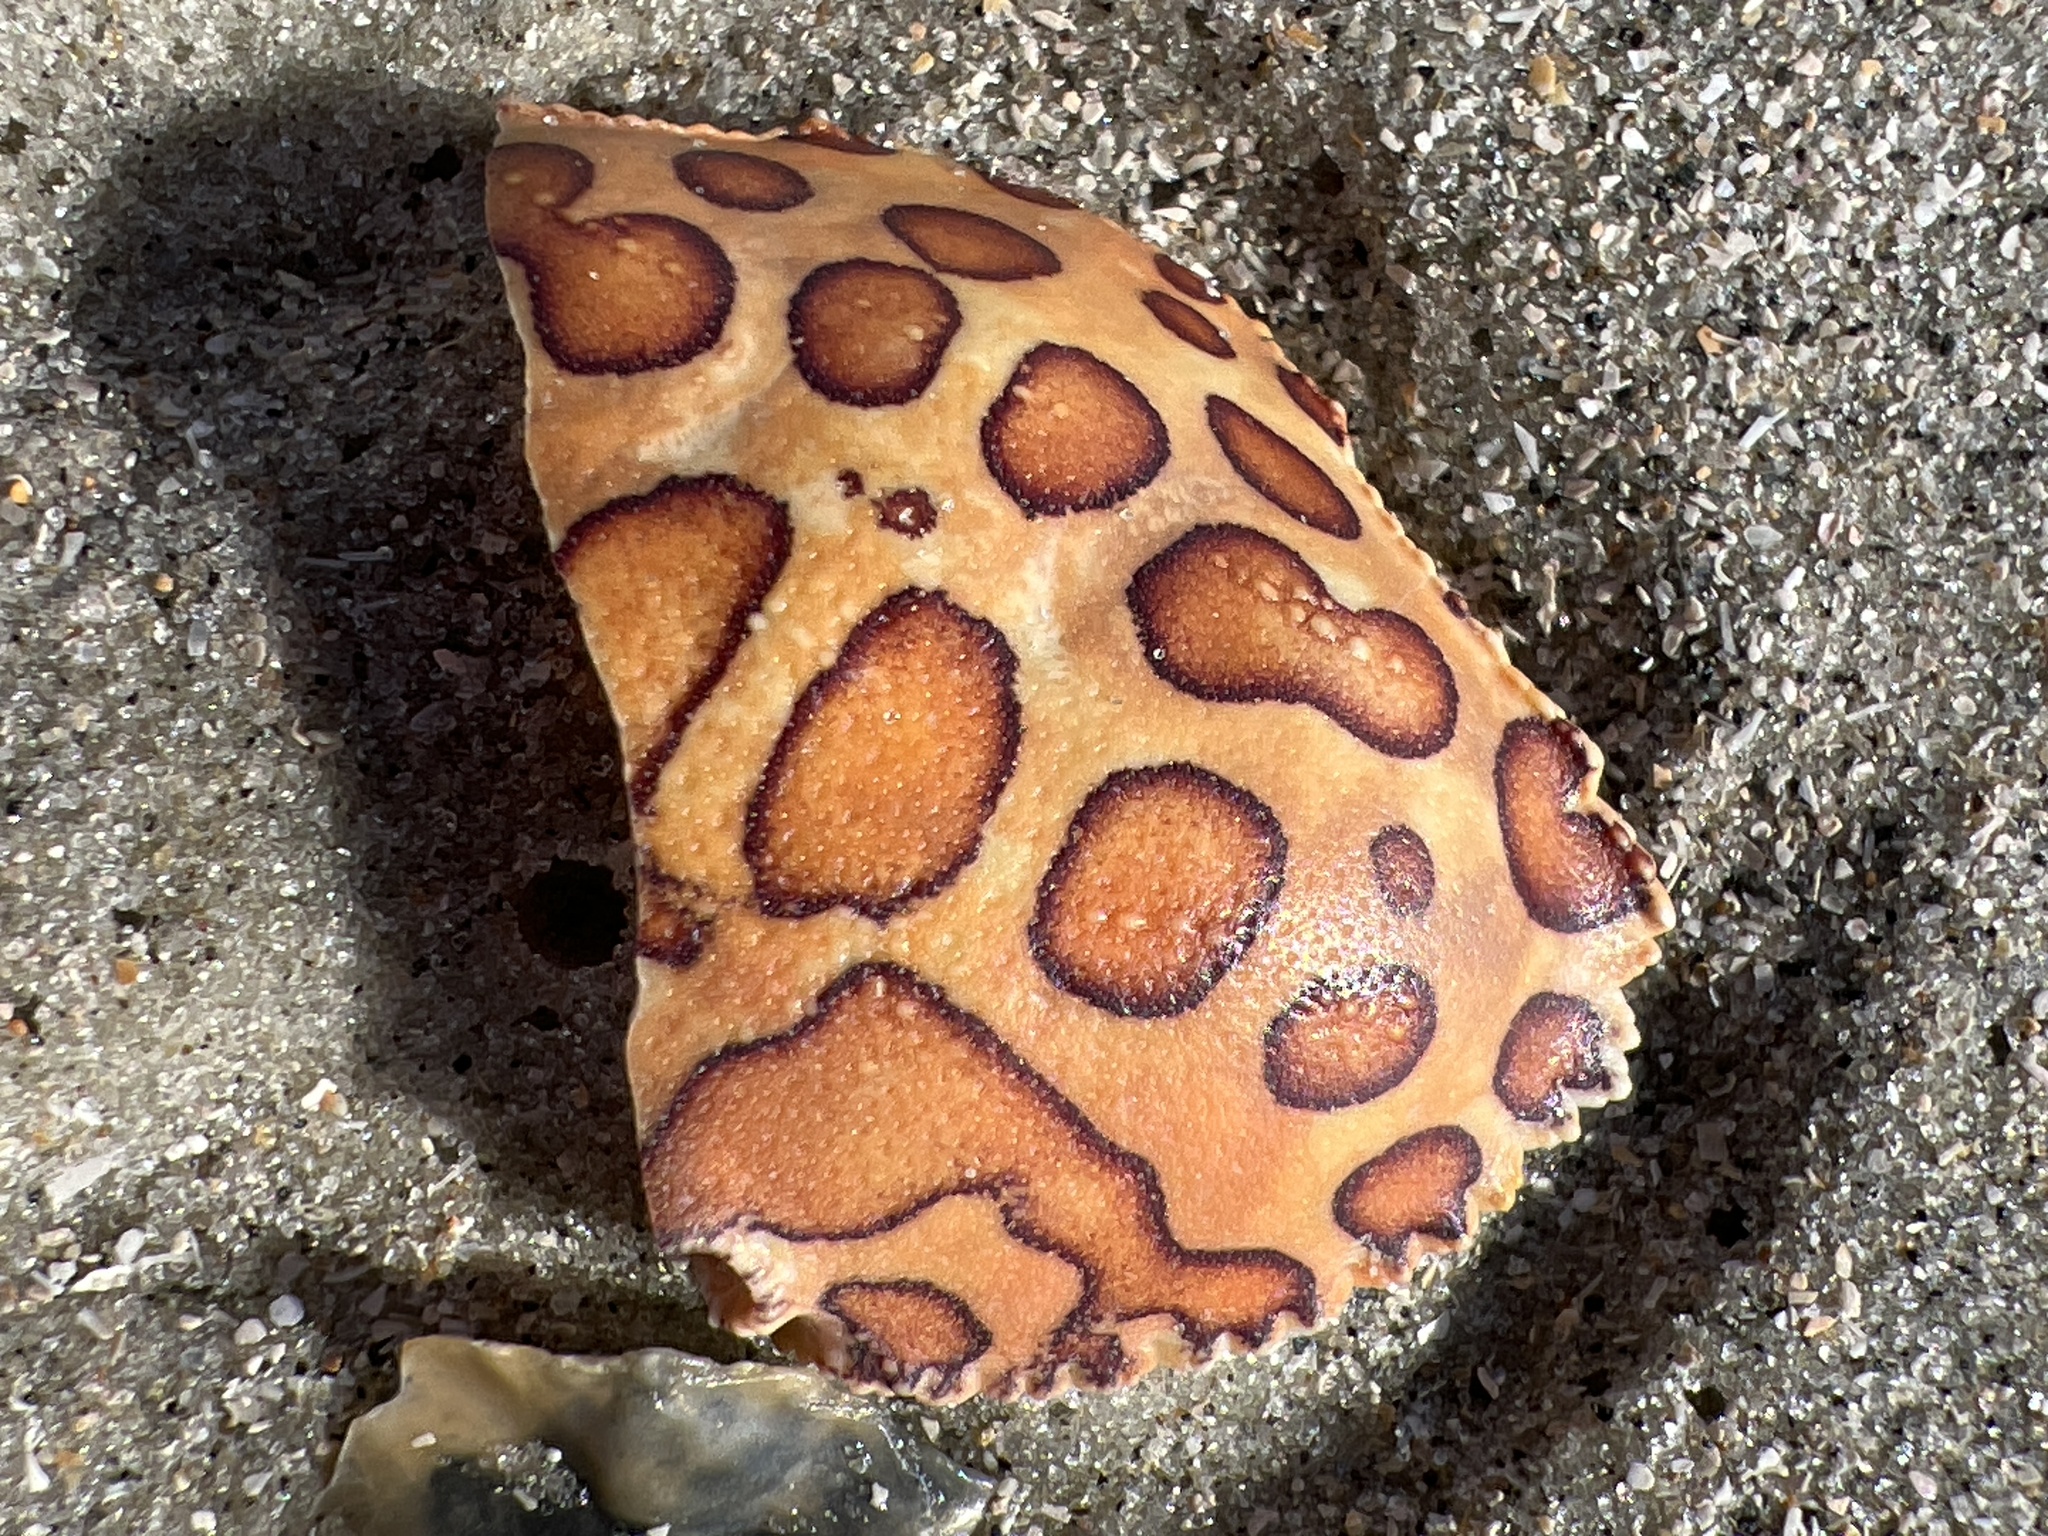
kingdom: Animalia
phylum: Arthropoda
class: Malacostraca
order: Decapoda
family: Aethridae
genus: Hepatus
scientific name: Hepatus epheliticus
